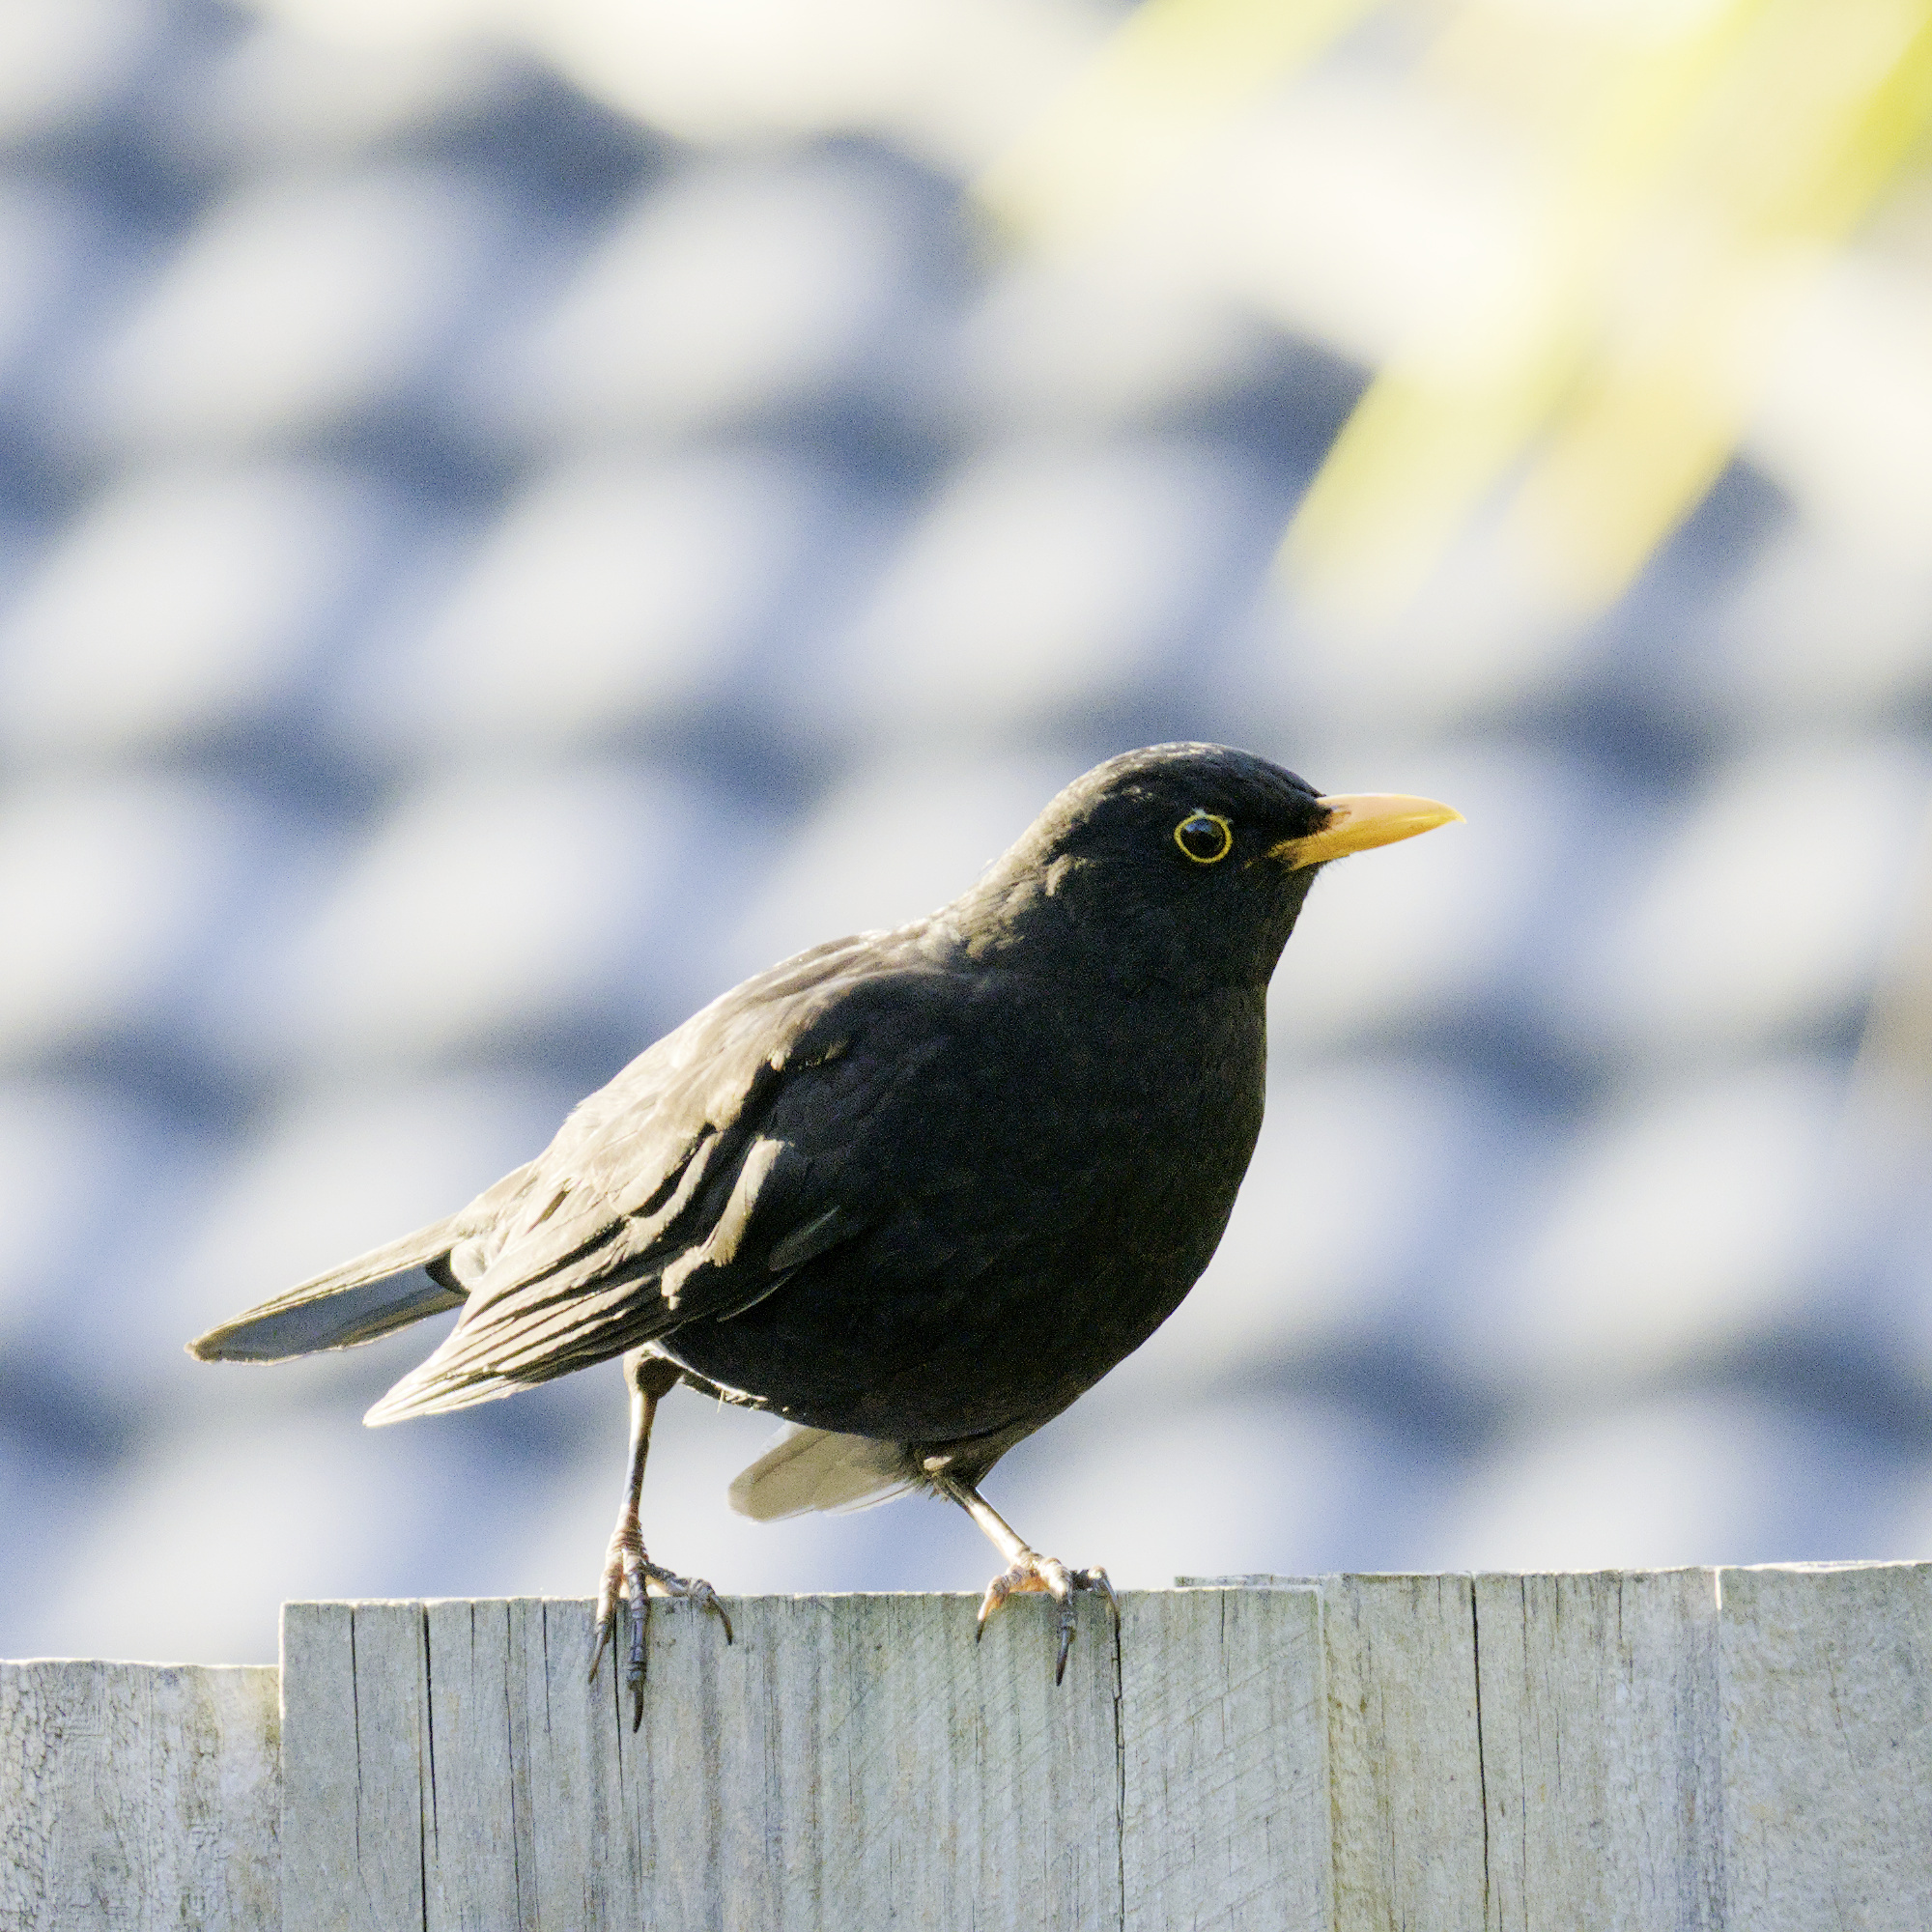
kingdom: Animalia
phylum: Chordata
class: Aves
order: Passeriformes
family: Turdidae
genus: Turdus
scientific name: Turdus merula
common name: Common blackbird
